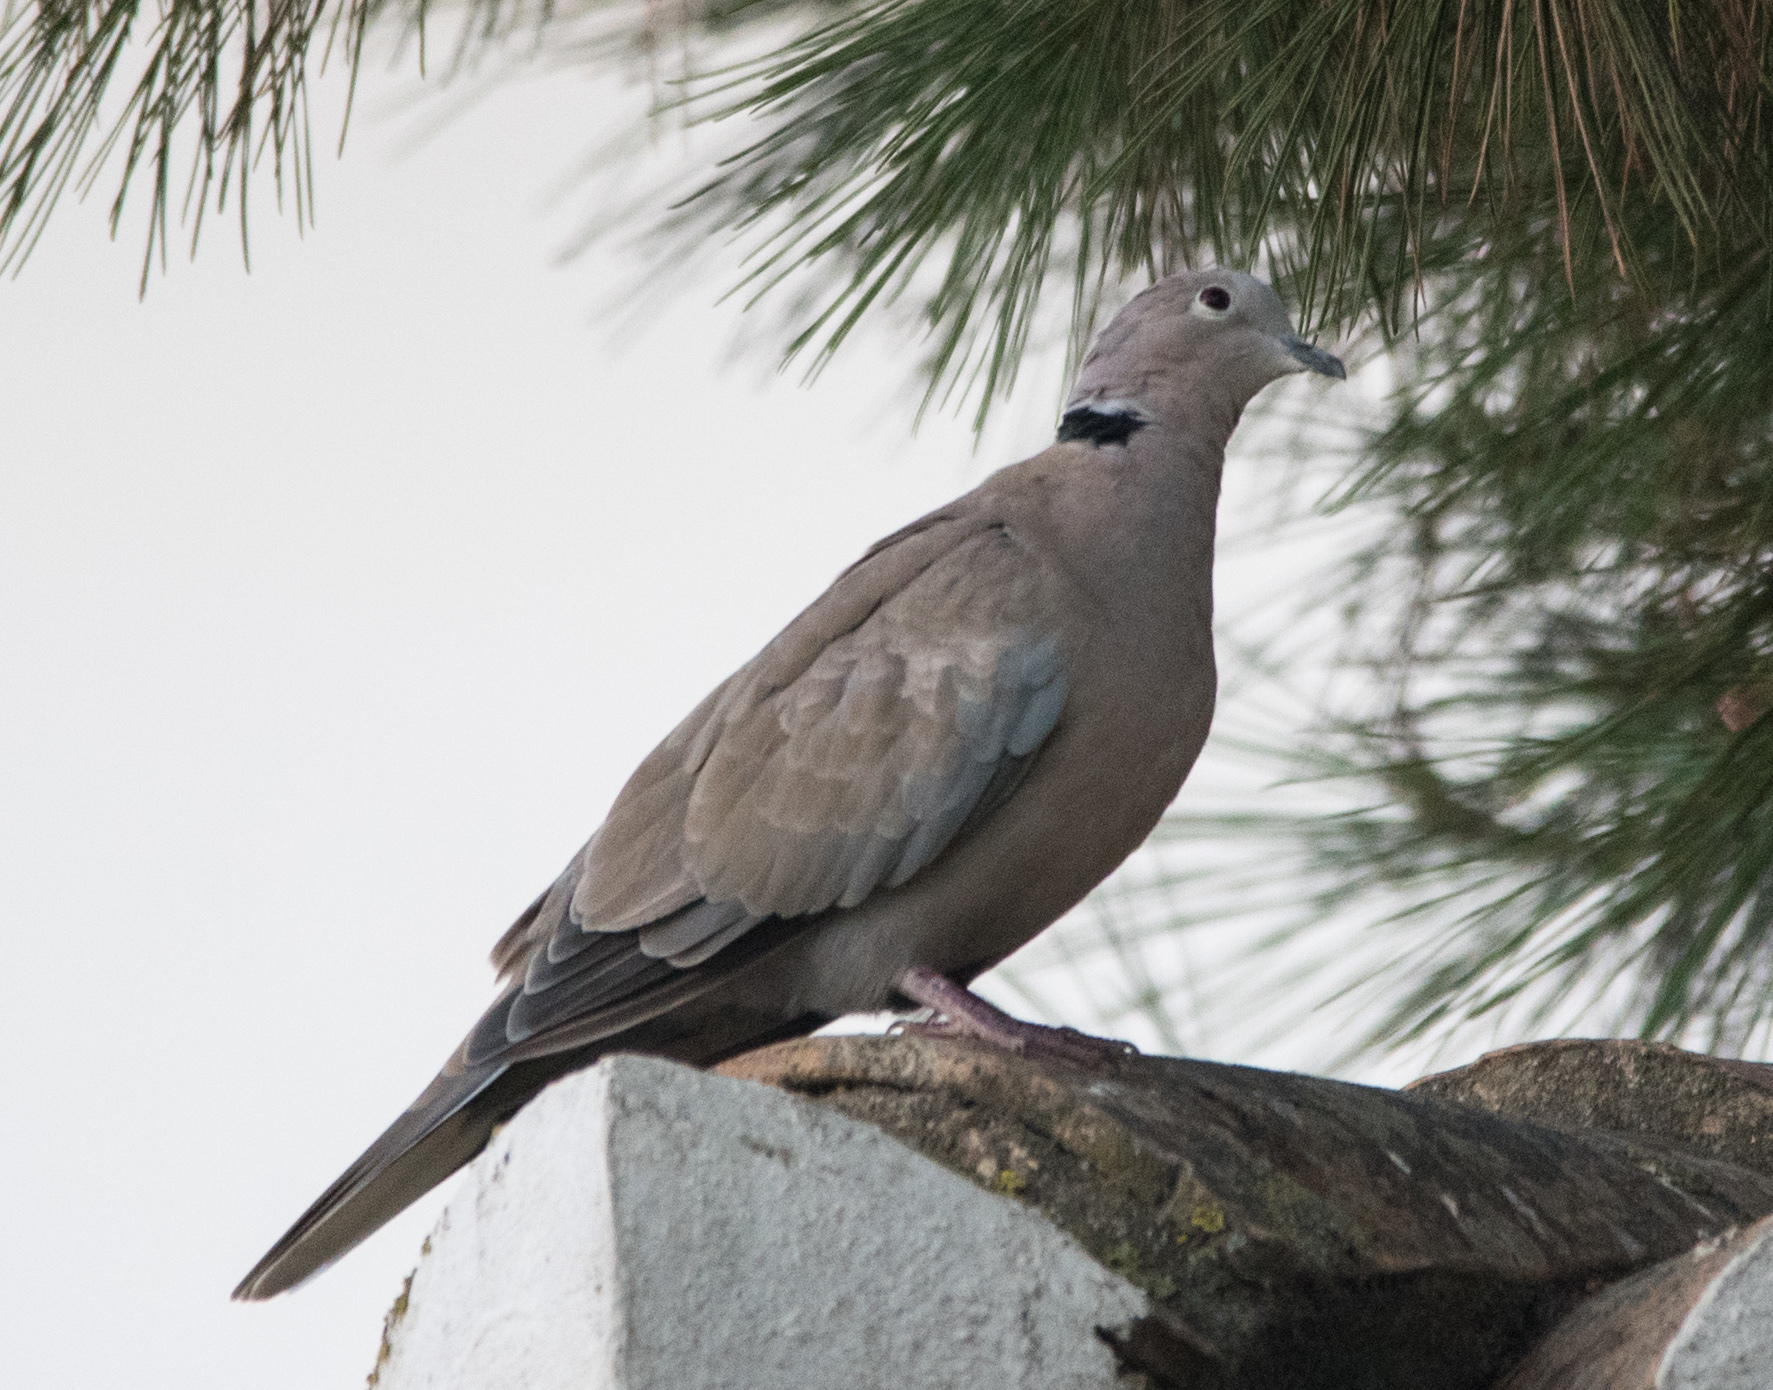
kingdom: Animalia
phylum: Chordata
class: Aves
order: Columbiformes
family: Columbidae
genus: Streptopelia
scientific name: Streptopelia decaocto
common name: Eurasian collared dove
